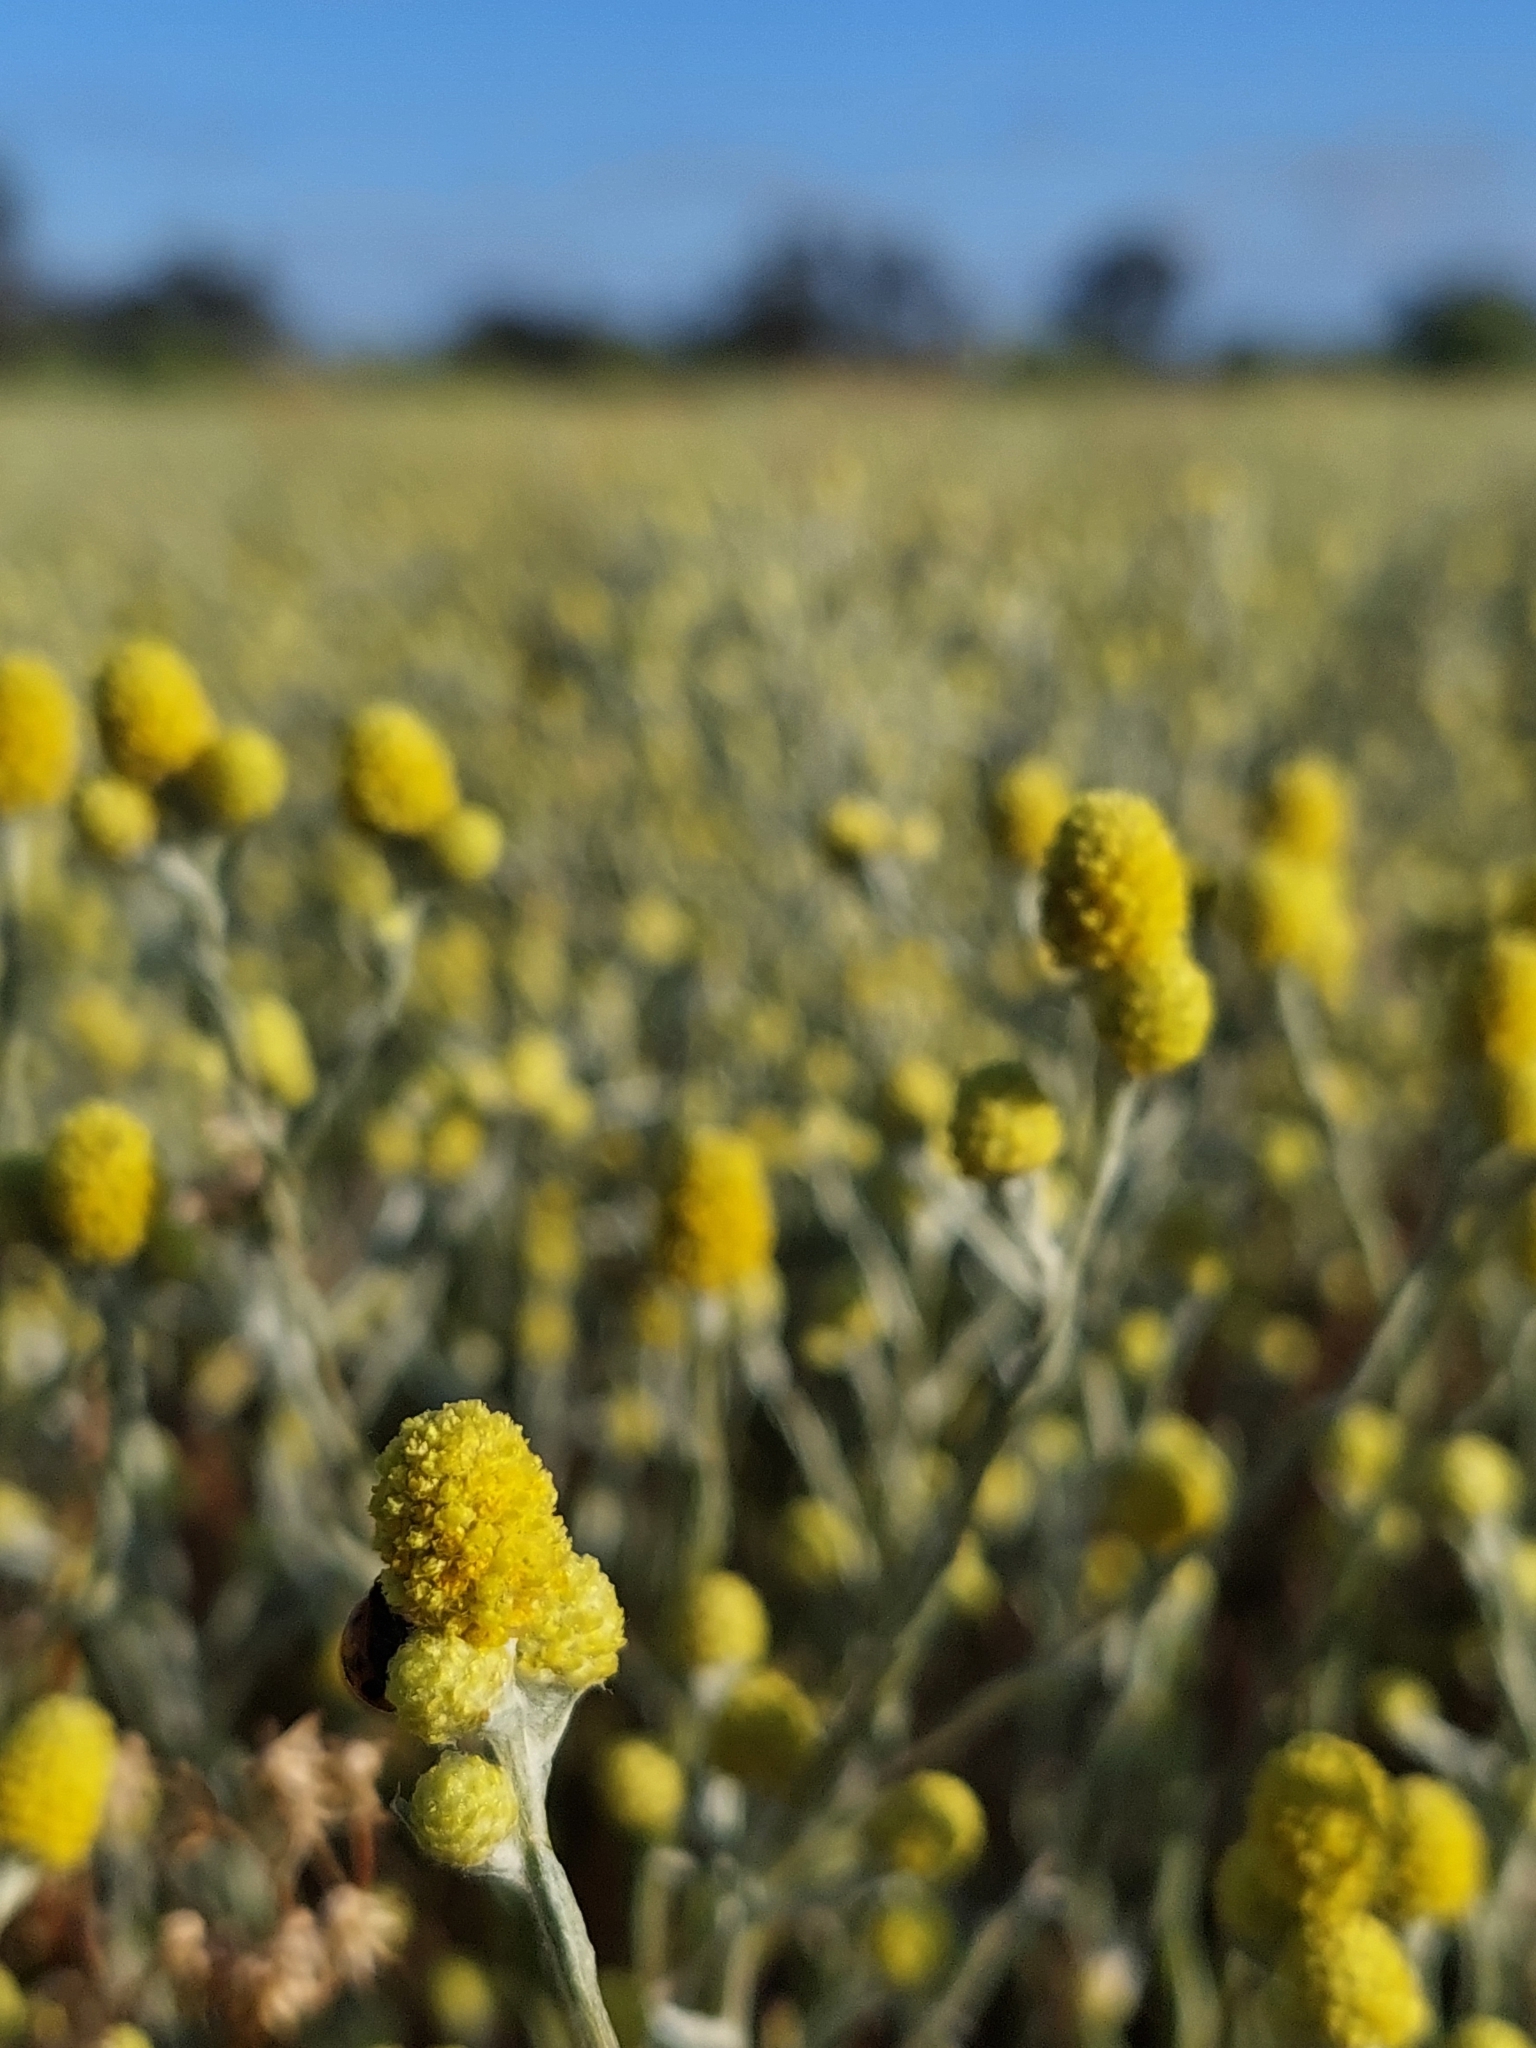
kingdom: Plantae
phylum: Tracheophyta
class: Magnoliopsida
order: Asterales
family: Asteraceae
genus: Calocephalus
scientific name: Calocephalus sonderi
